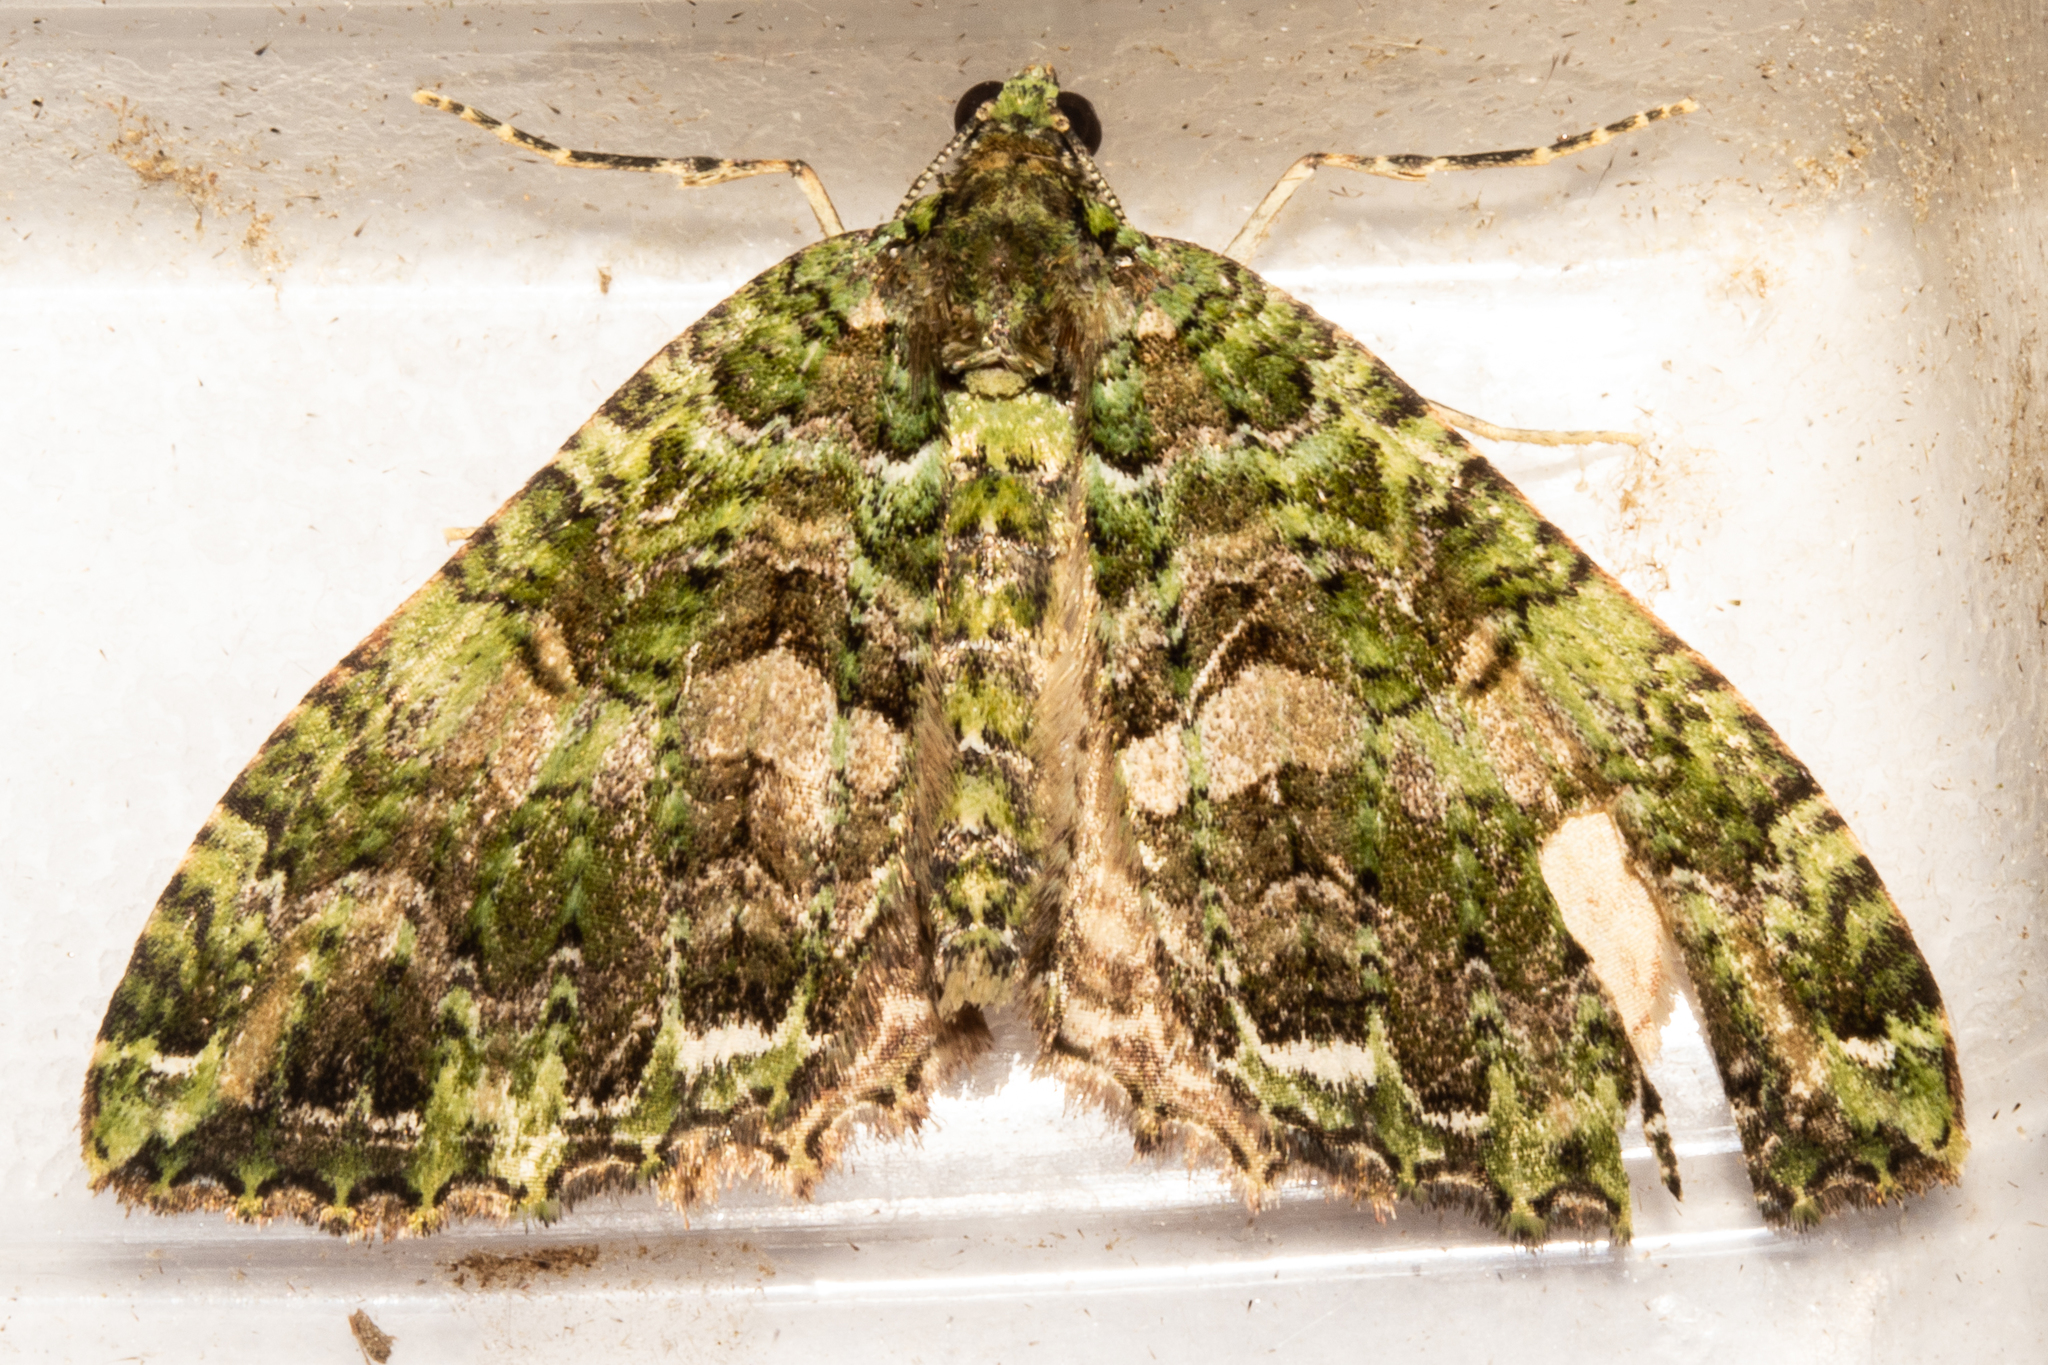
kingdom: Animalia
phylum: Arthropoda
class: Insecta
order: Lepidoptera
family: Geometridae
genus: Austrocidaria
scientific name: Austrocidaria similata
